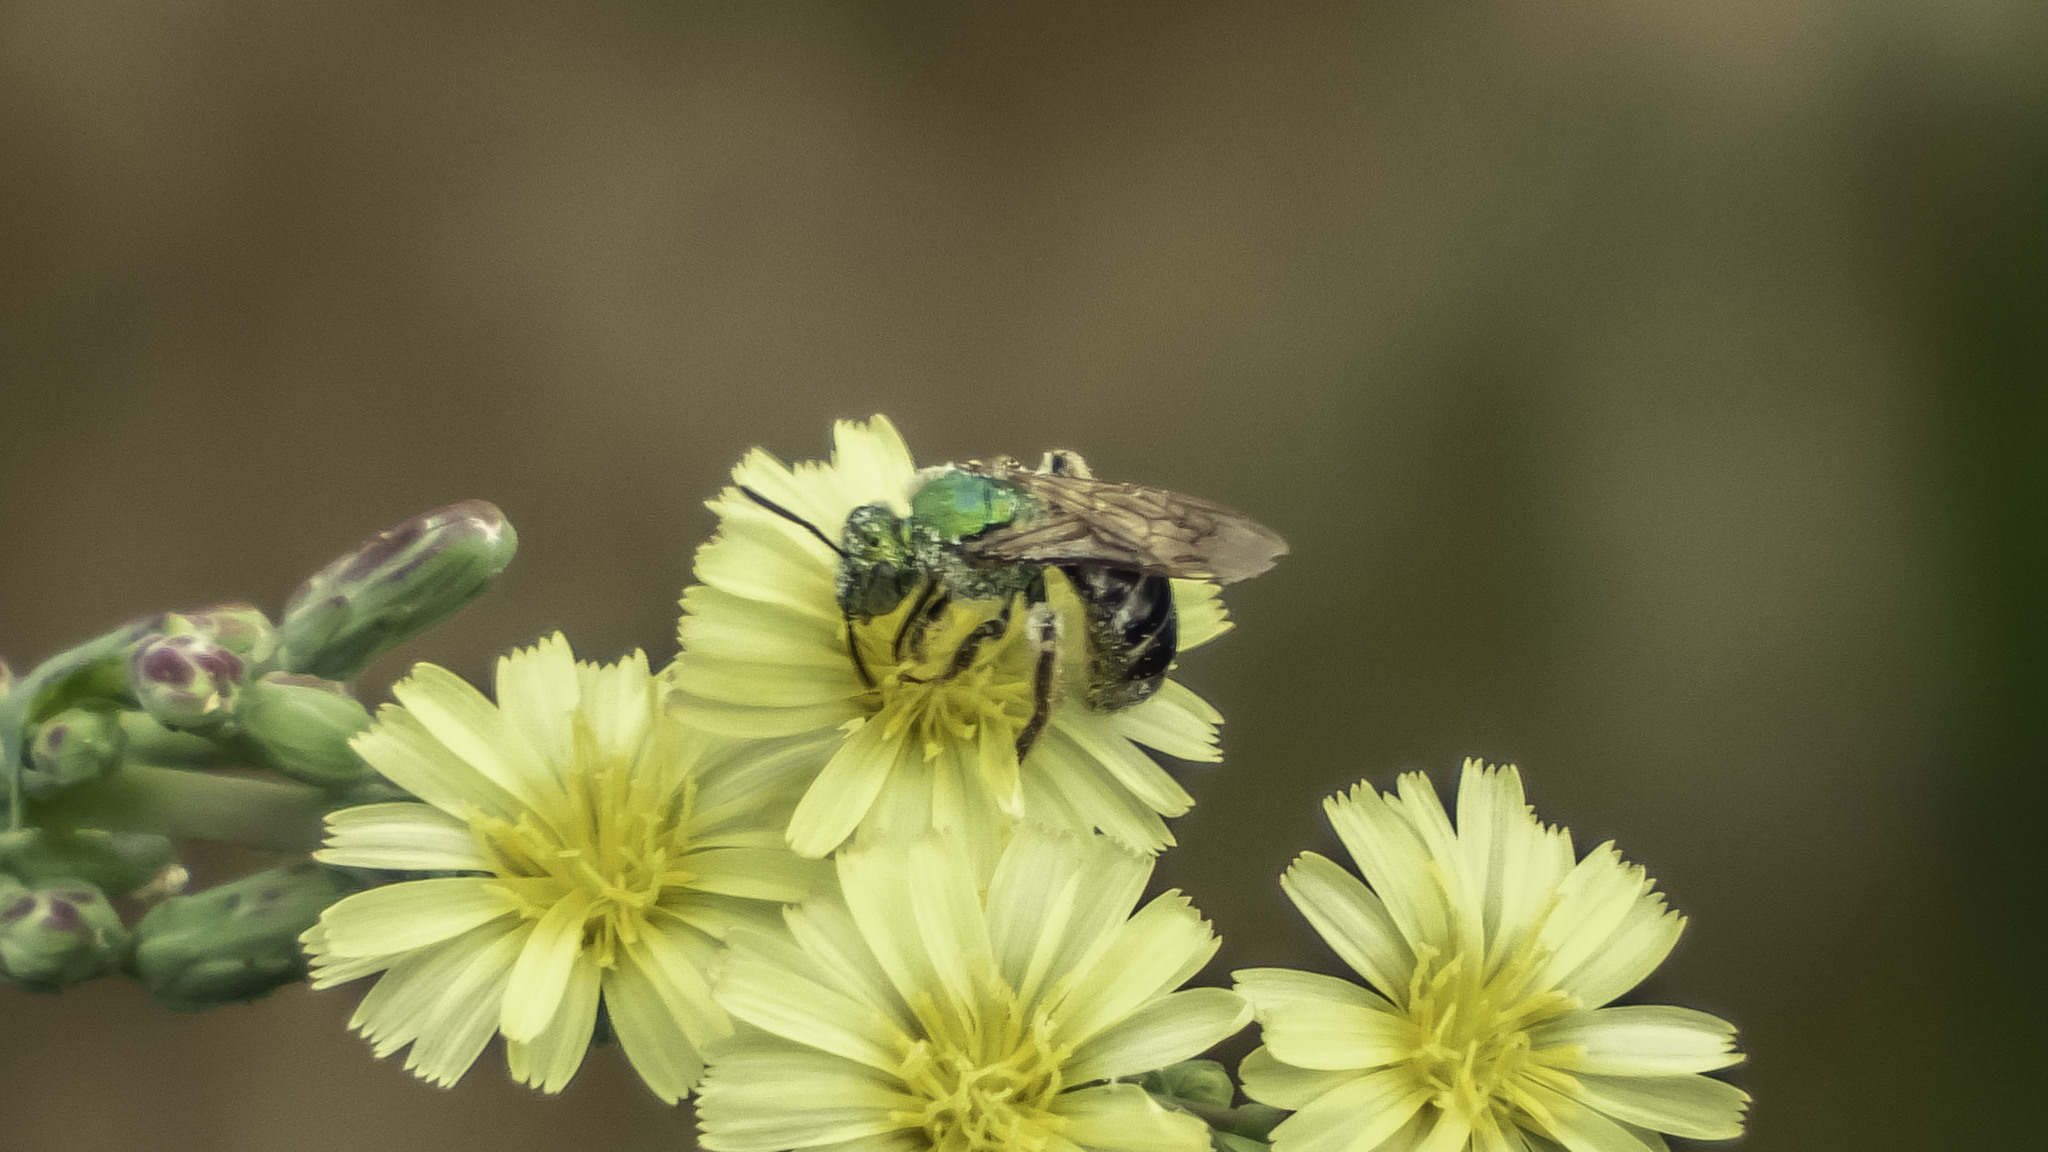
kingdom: Animalia
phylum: Arthropoda
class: Insecta
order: Hymenoptera
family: Halictidae
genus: Agapostemon
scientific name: Agapostemon virescens
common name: Bicolored striped sweat bee
